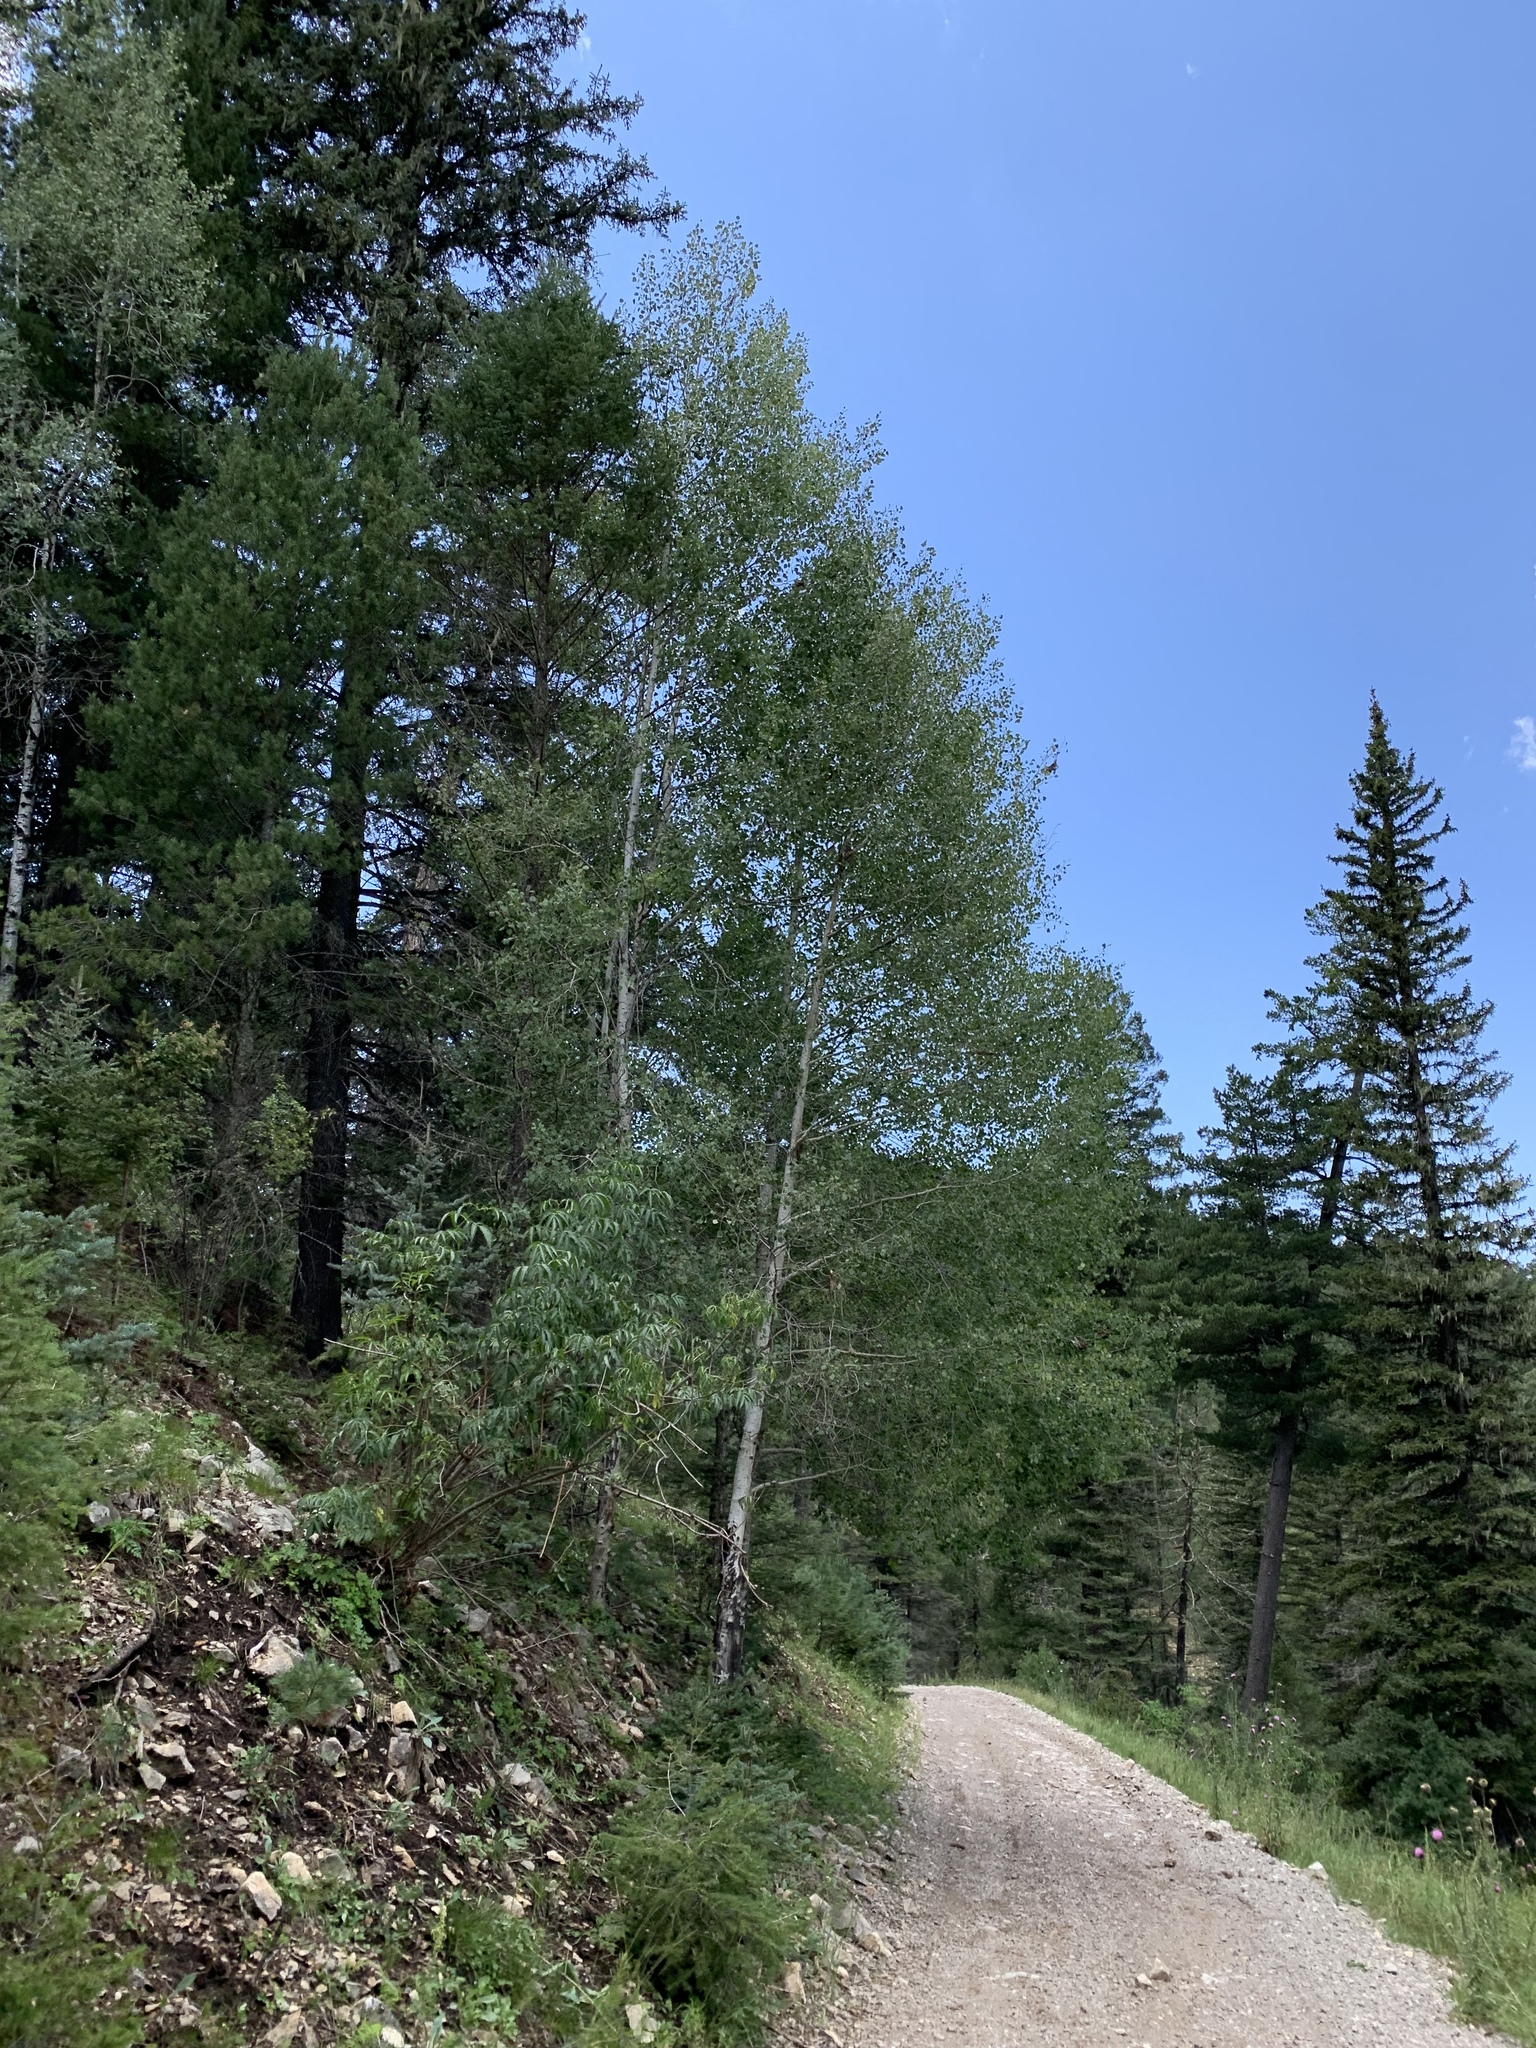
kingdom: Plantae
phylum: Tracheophyta
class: Magnoliopsida
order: Malpighiales
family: Salicaceae
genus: Populus
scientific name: Populus tremuloides
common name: Quaking aspen
